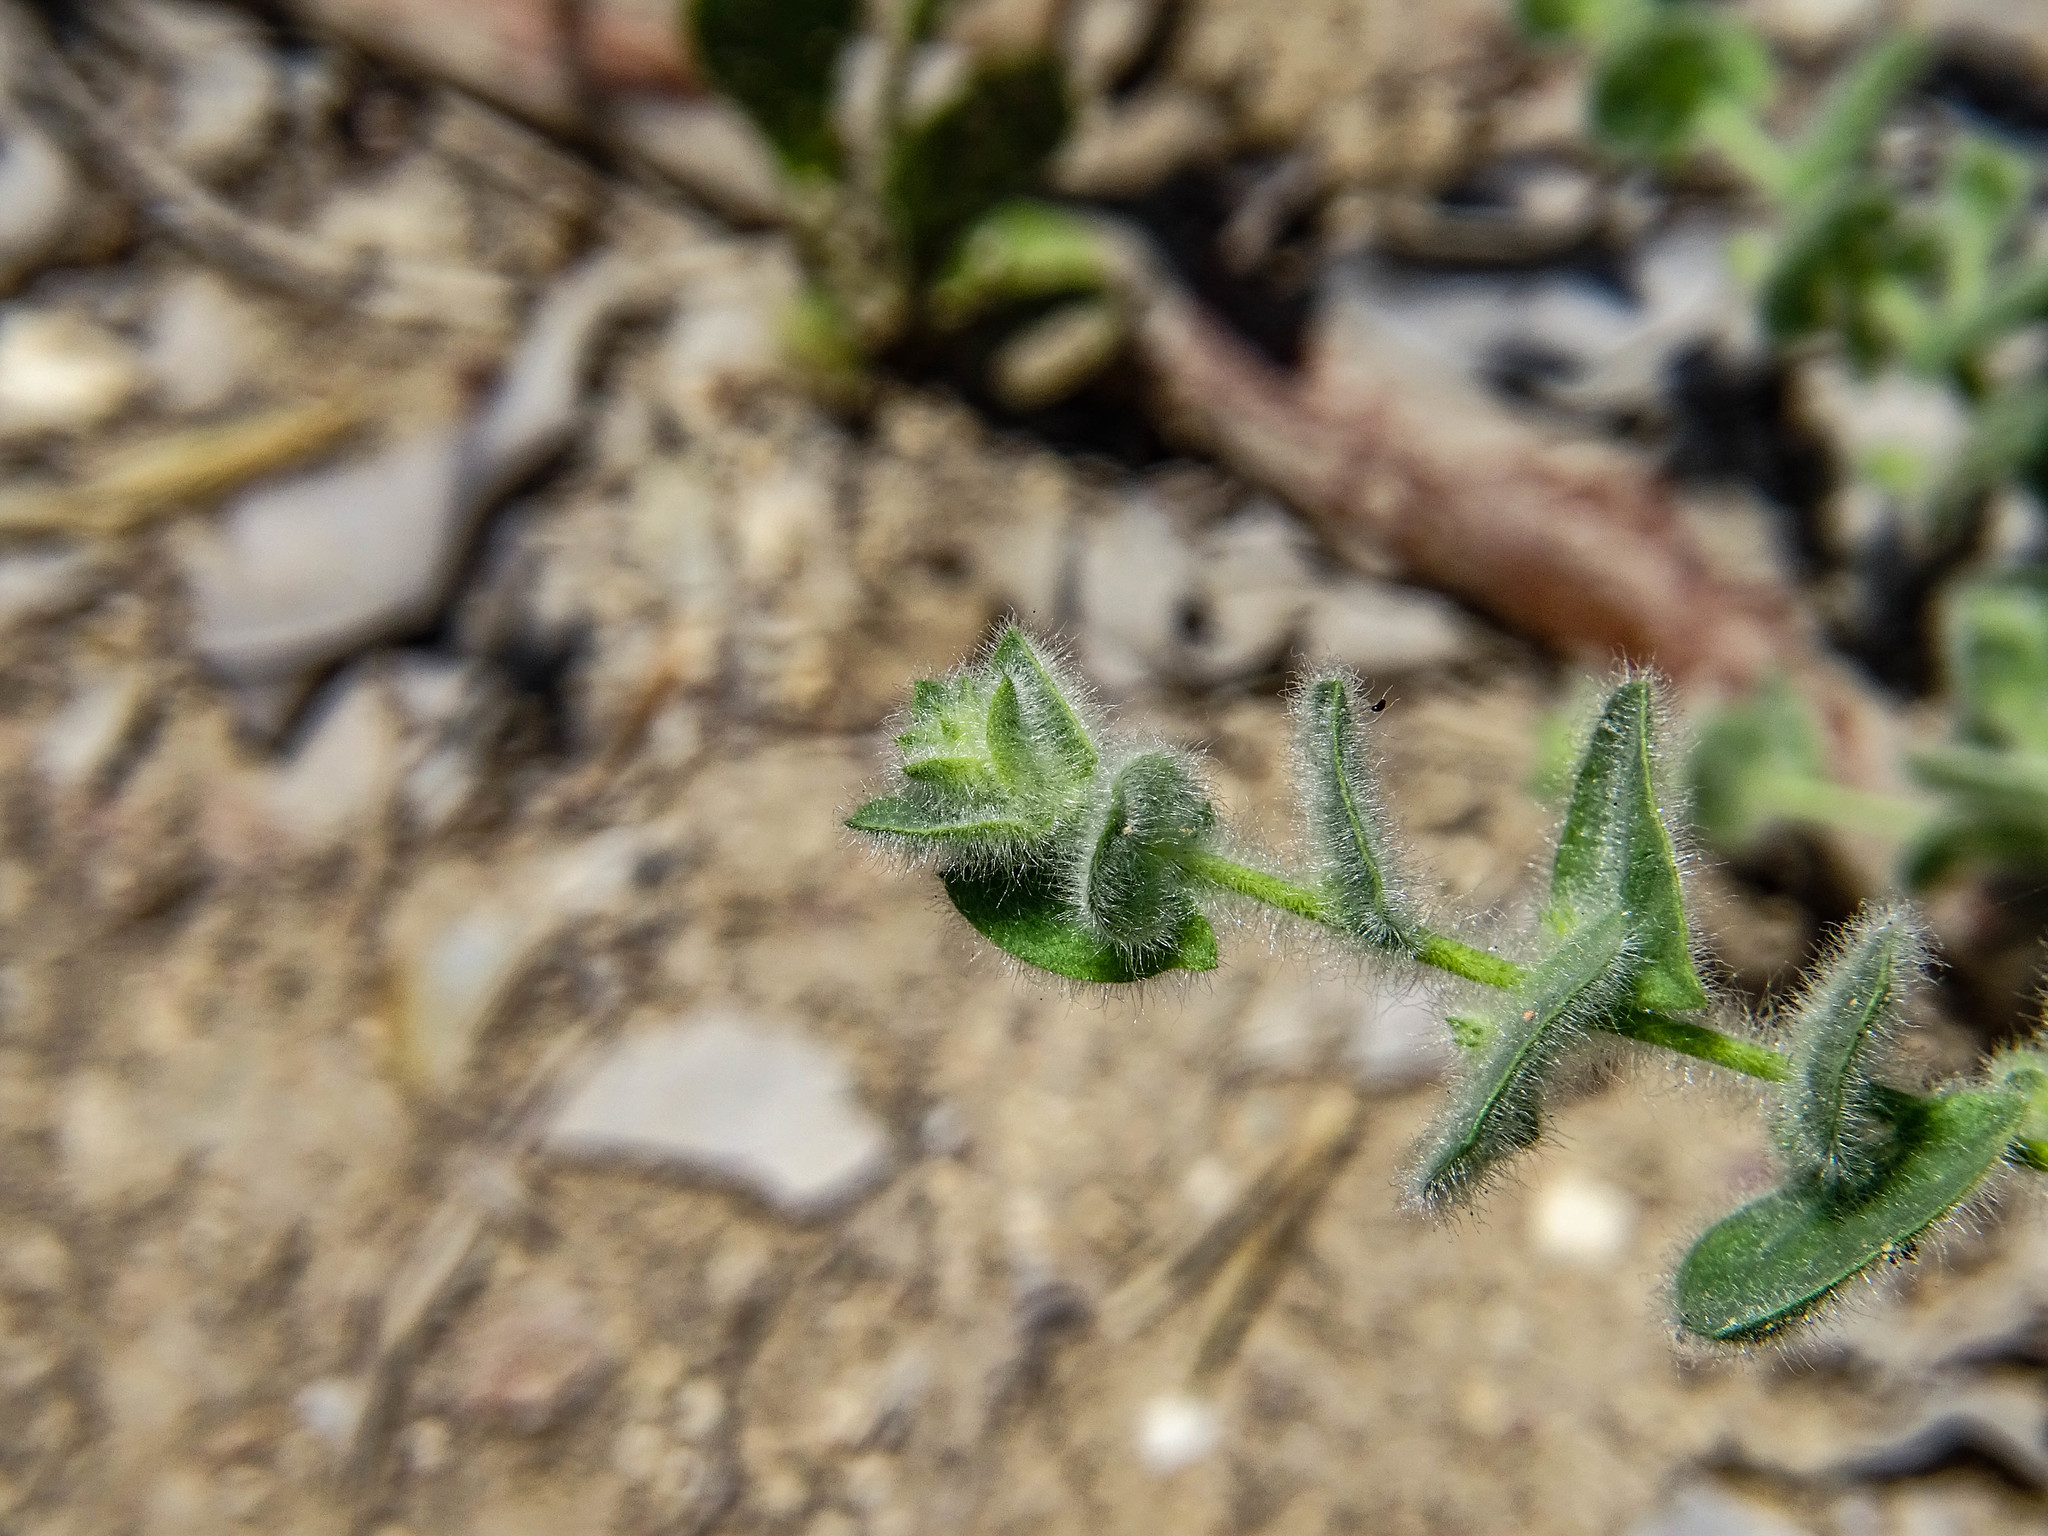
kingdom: Plantae
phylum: Tracheophyta
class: Magnoliopsida
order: Lamiales
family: Plantaginaceae
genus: Kickxia
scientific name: Kickxia elatine
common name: Sharp-leaved fluellen
